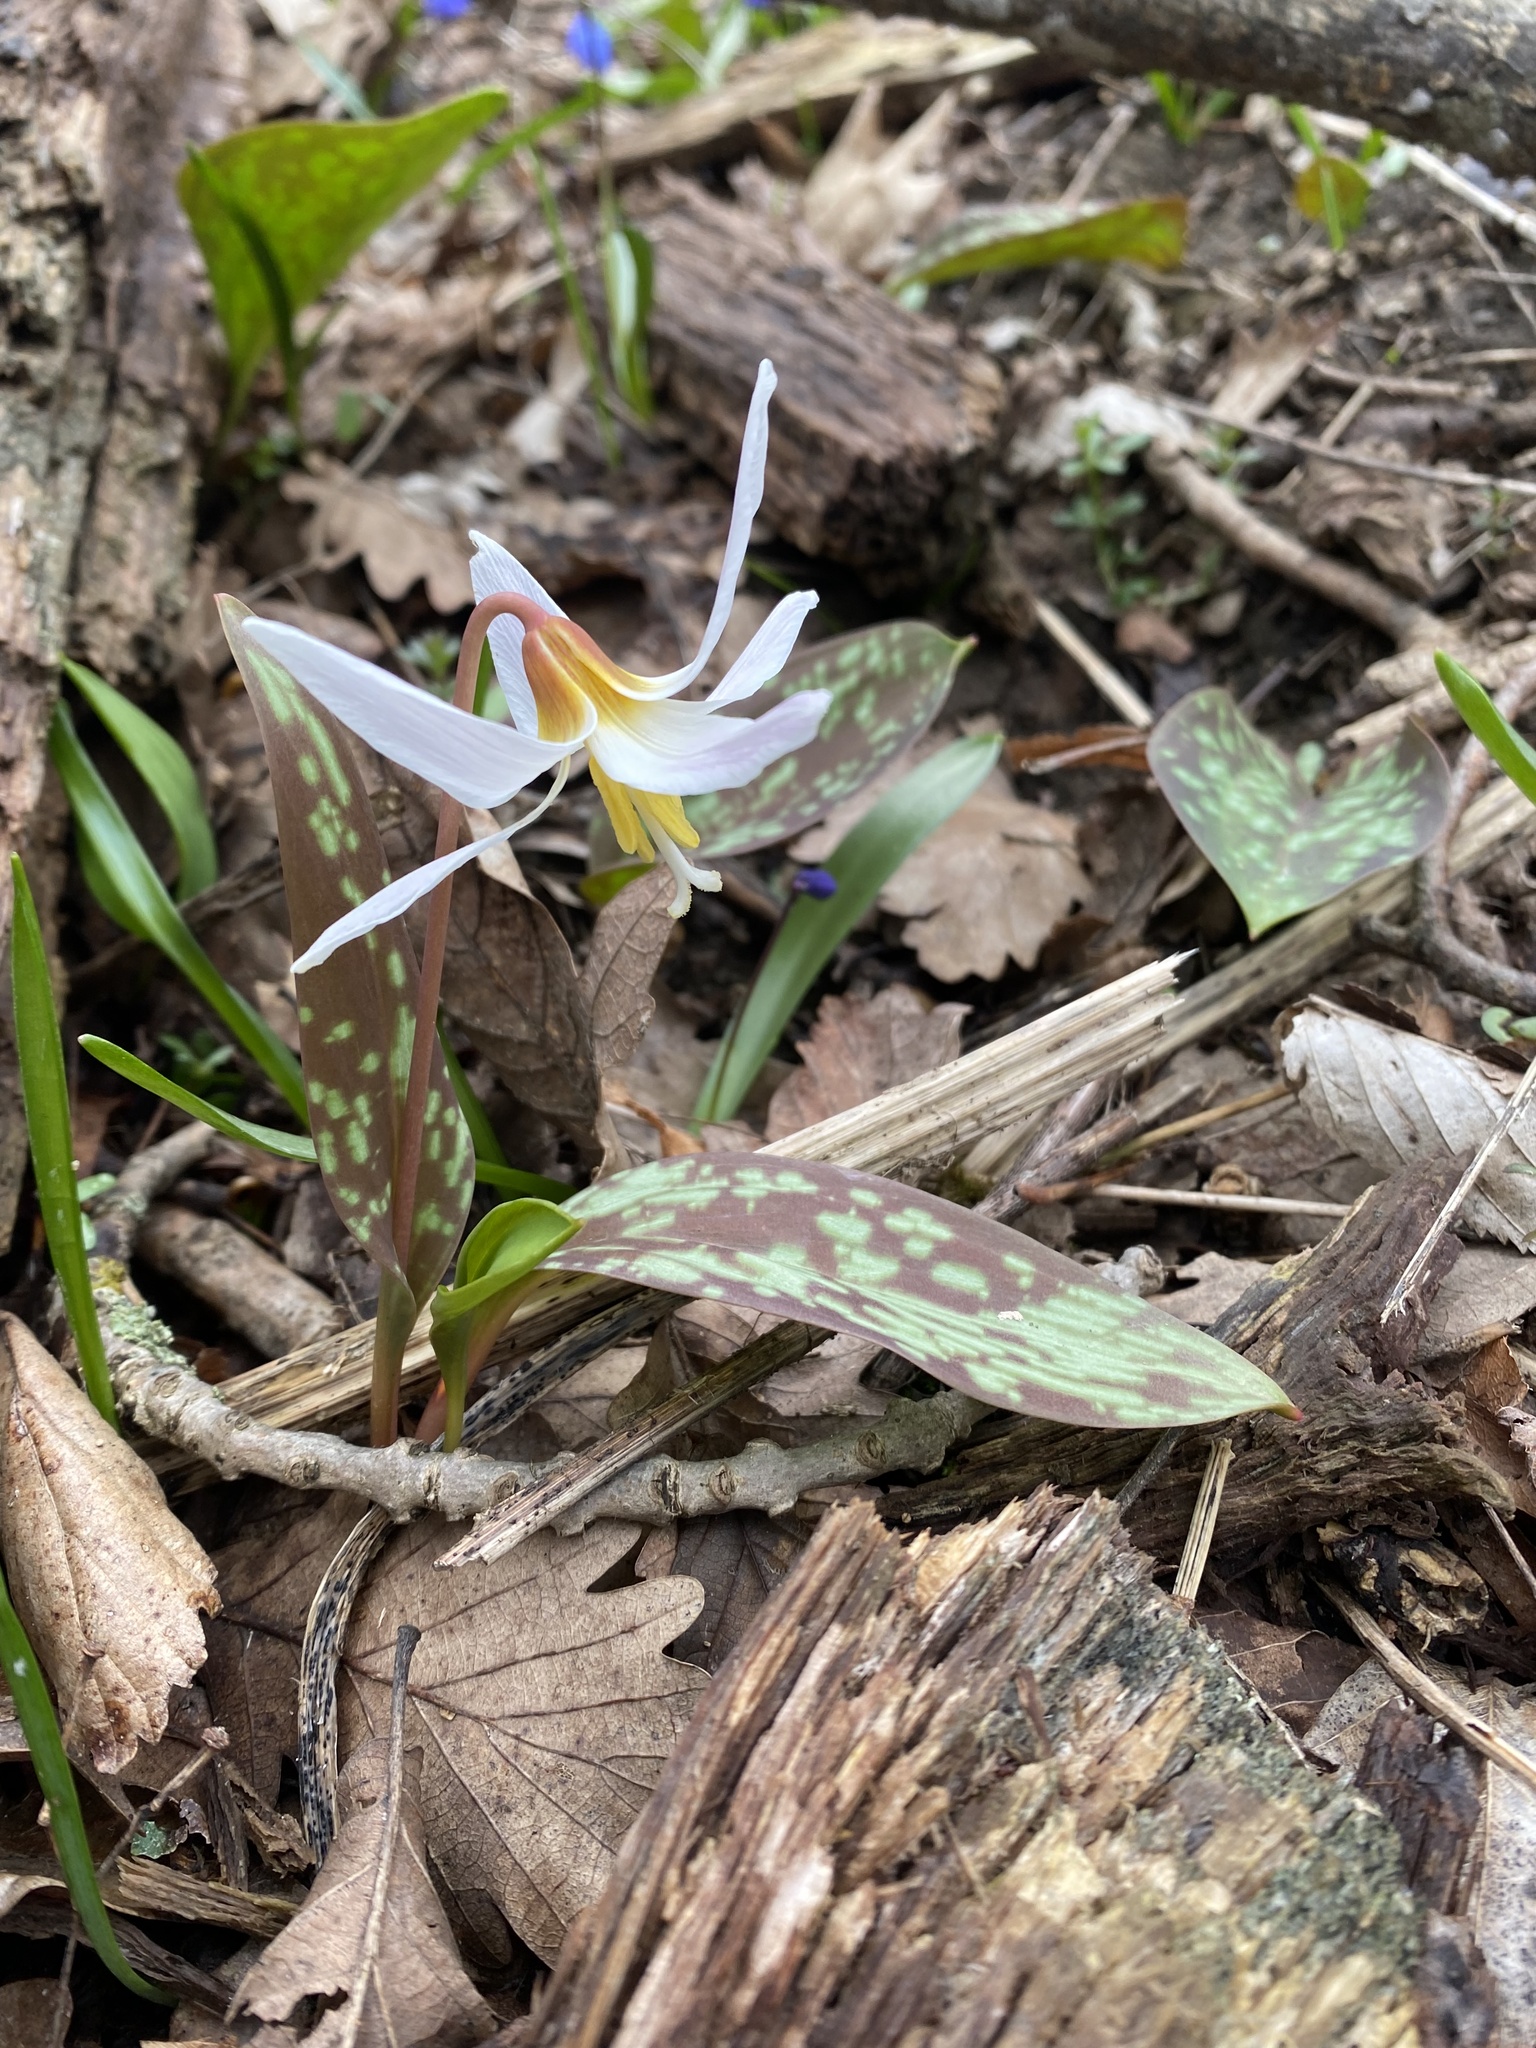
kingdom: Plantae
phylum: Tracheophyta
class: Liliopsida
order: Liliales
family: Liliaceae
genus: Erythronium
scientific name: Erythronium caucasicum
